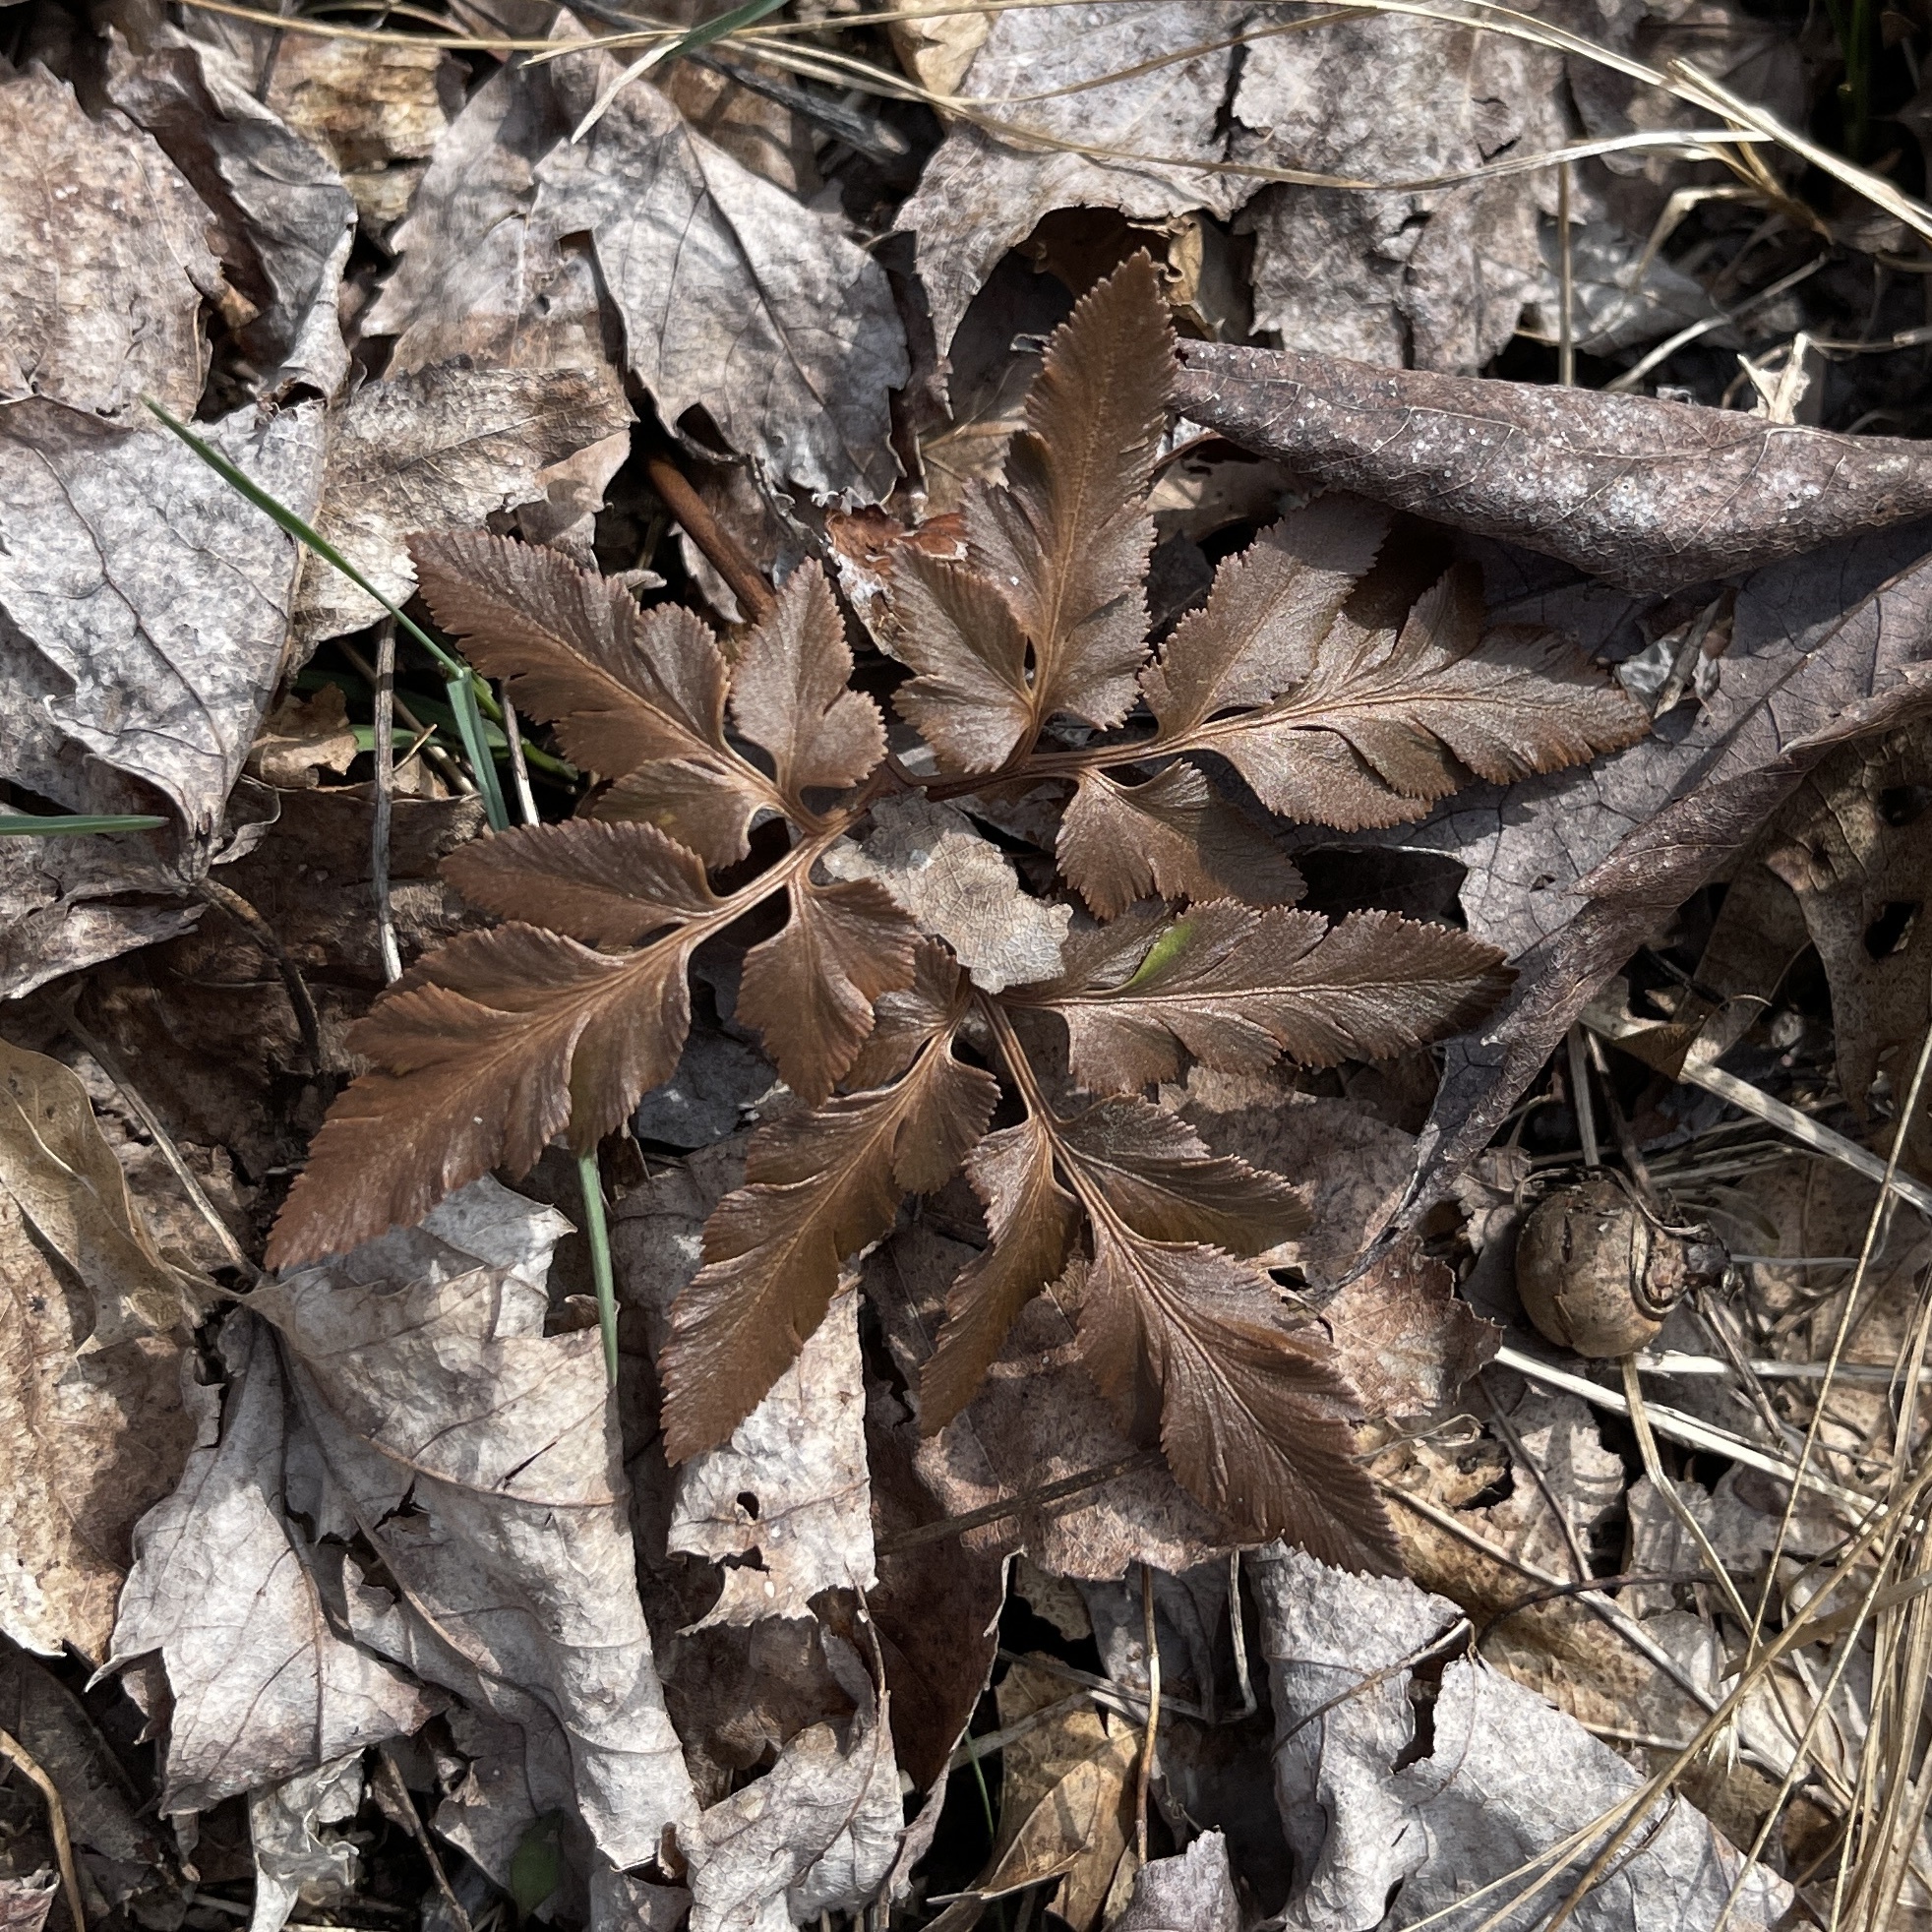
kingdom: Plantae
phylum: Tracheophyta
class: Polypodiopsida
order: Ophioglossales
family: Ophioglossaceae
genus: Sceptridium
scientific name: Sceptridium dissectum
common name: Cut-leaved grapefern
